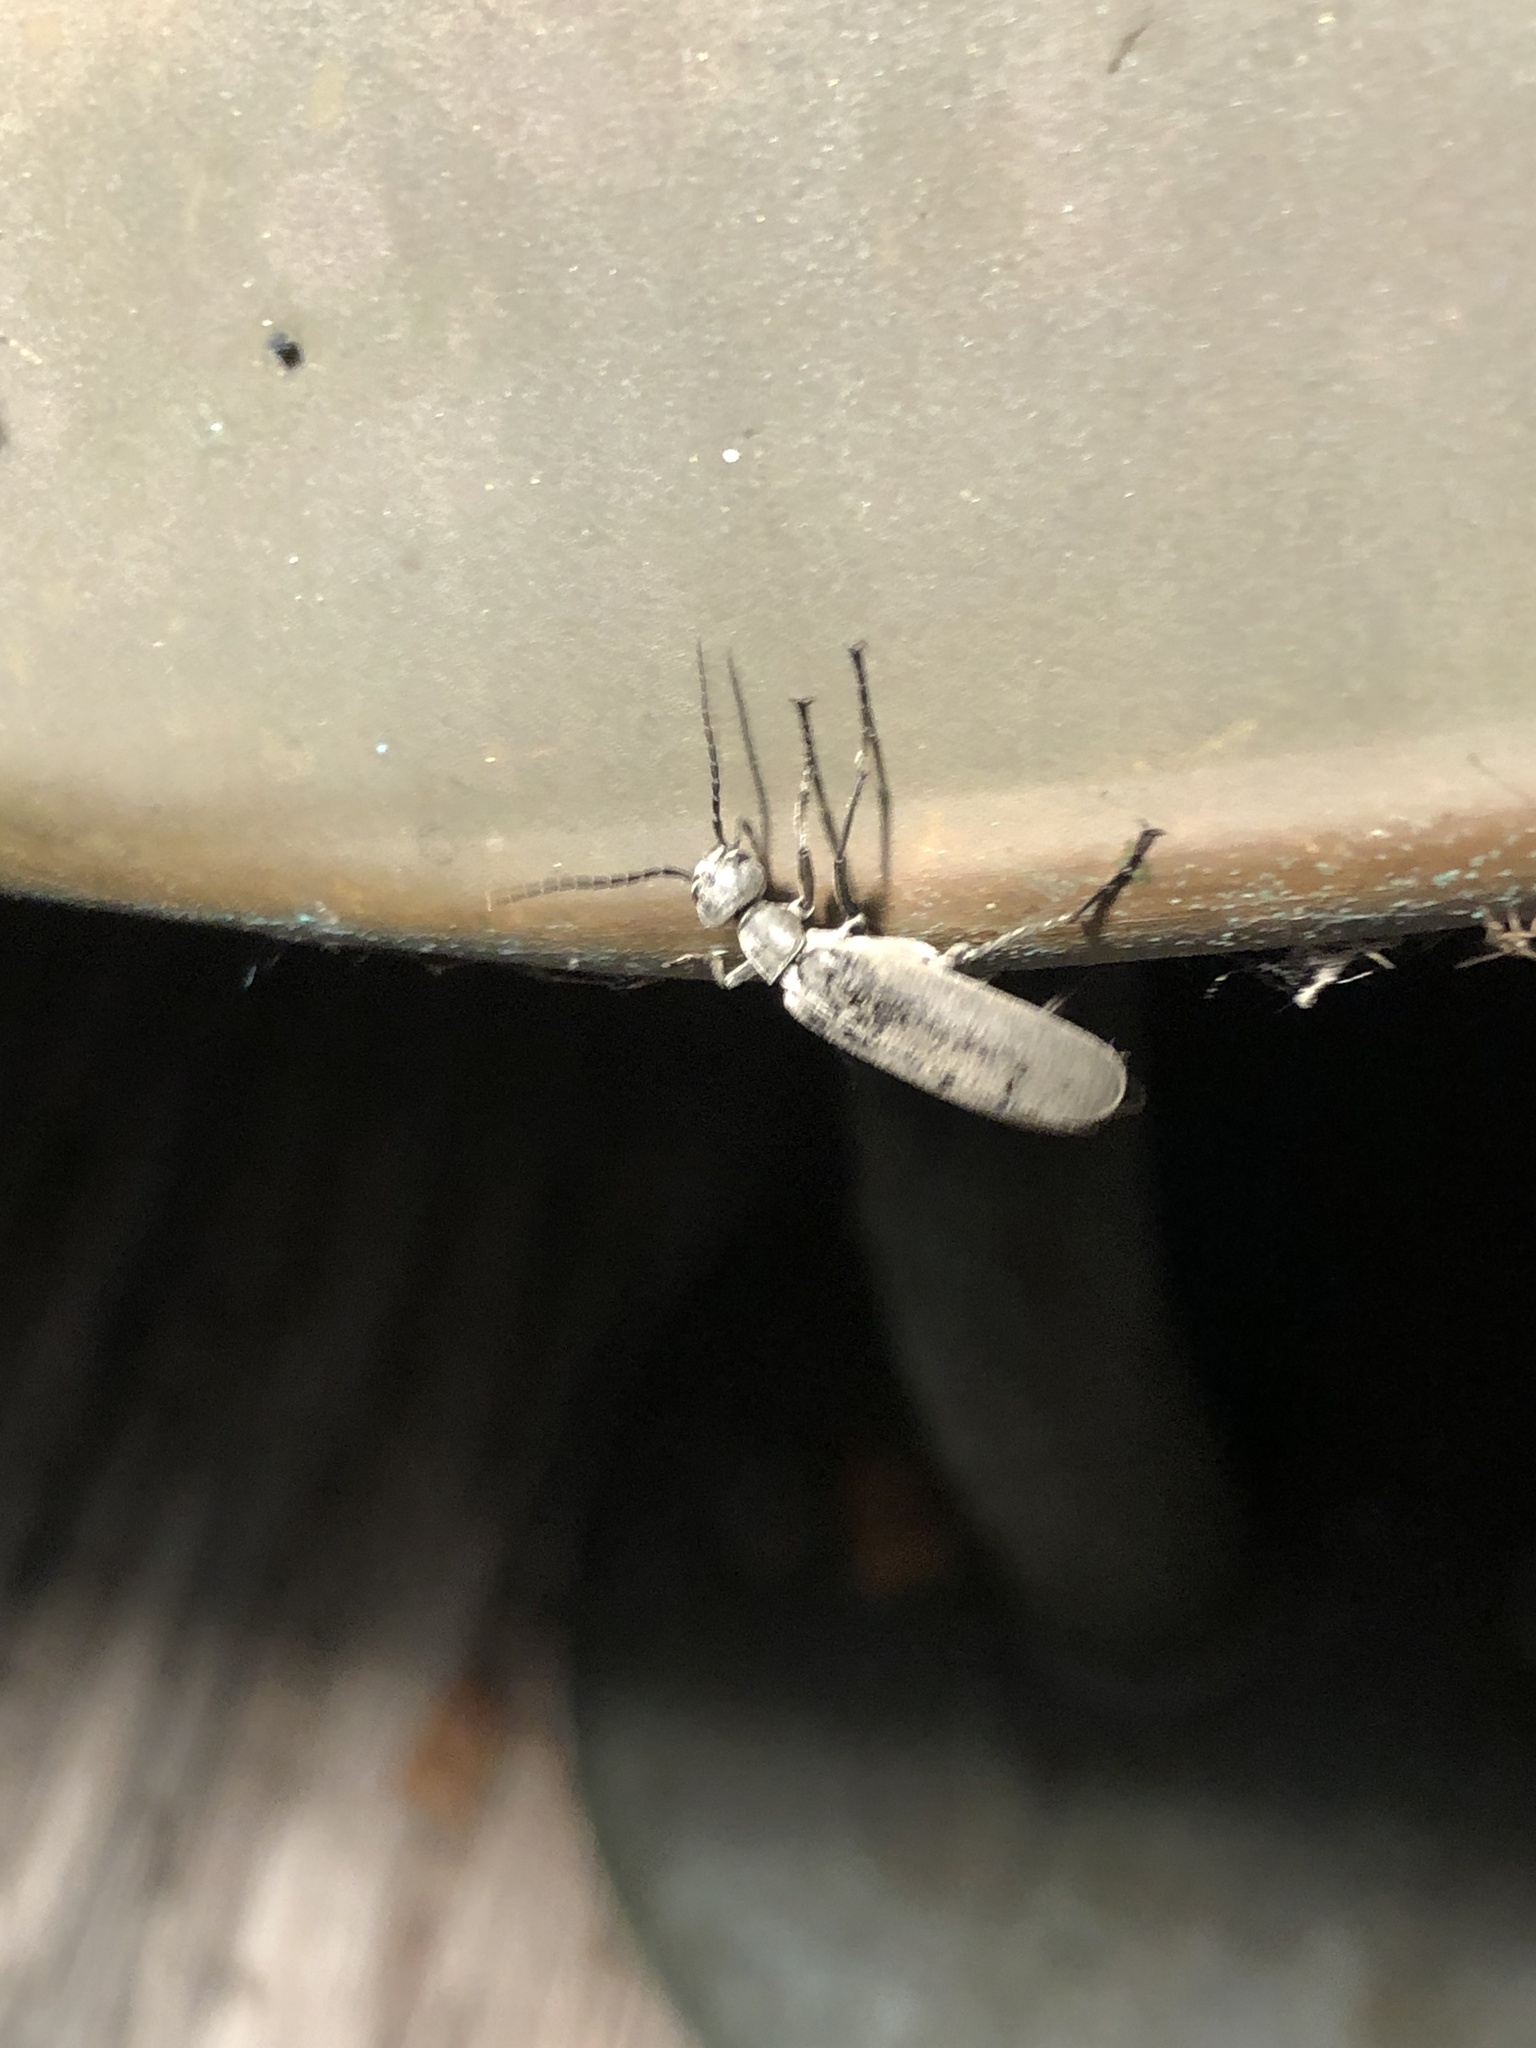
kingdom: Animalia
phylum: Arthropoda
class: Insecta
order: Coleoptera
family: Meloidae
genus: Epicauta
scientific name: Epicauta fabricii
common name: Ashgray blister beetle
